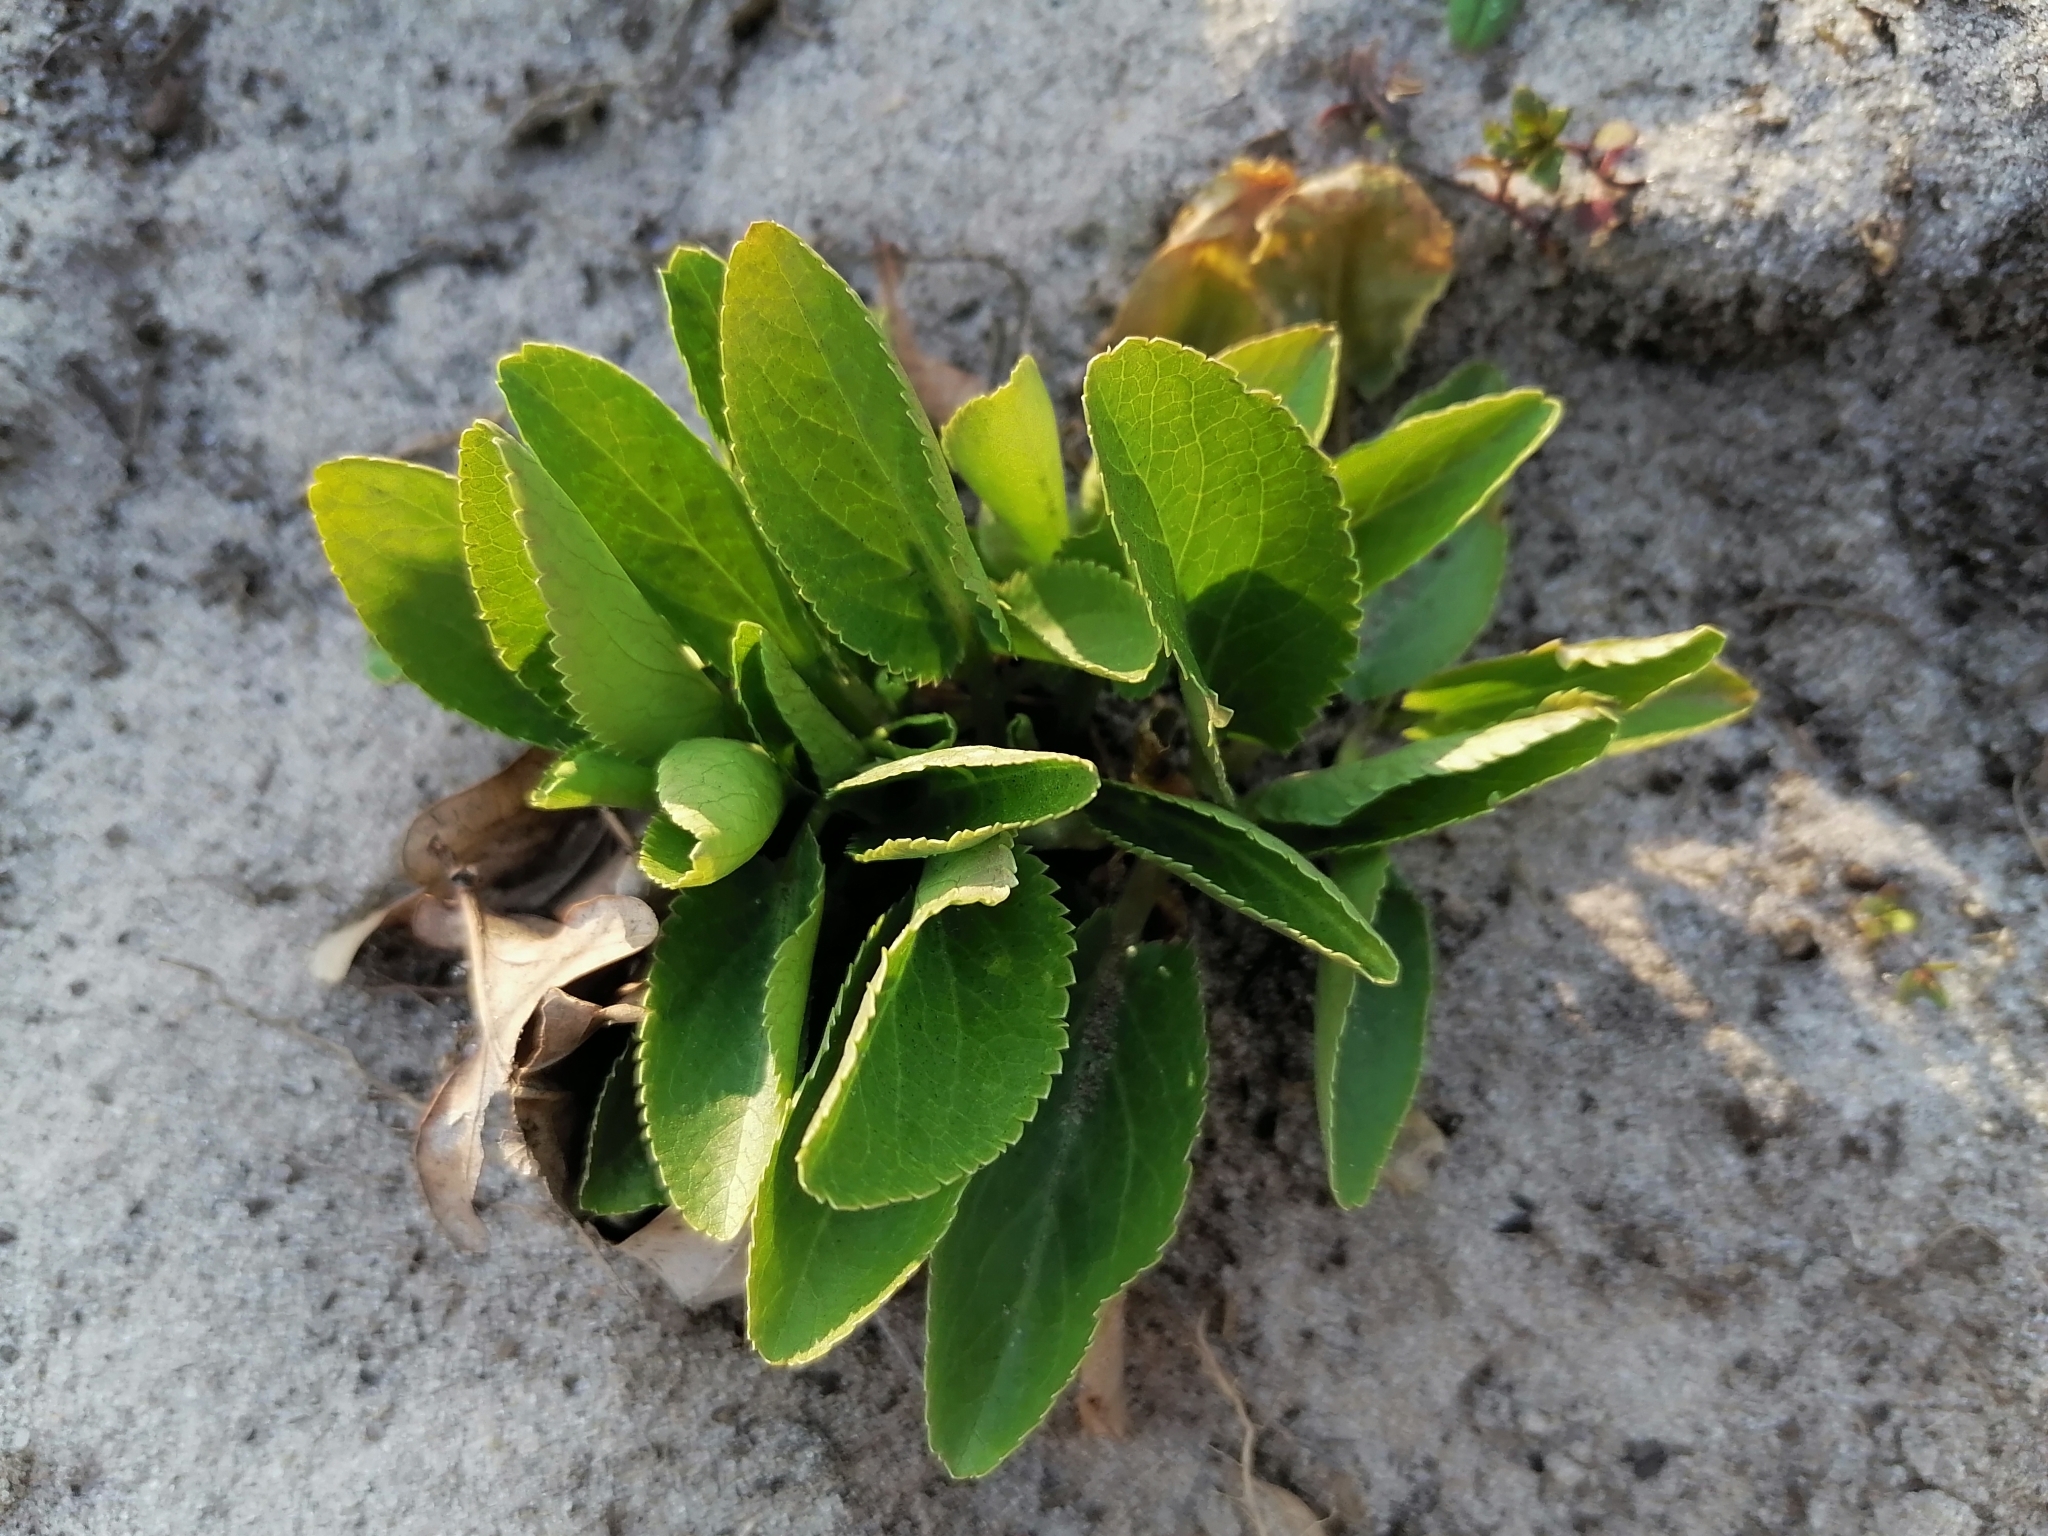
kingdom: Plantae
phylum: Tracheophyta
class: Magnoliopsida
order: Apiales
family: Apiaceae
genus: Eryngium
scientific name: Eryngium planum
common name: Blue eryngo
